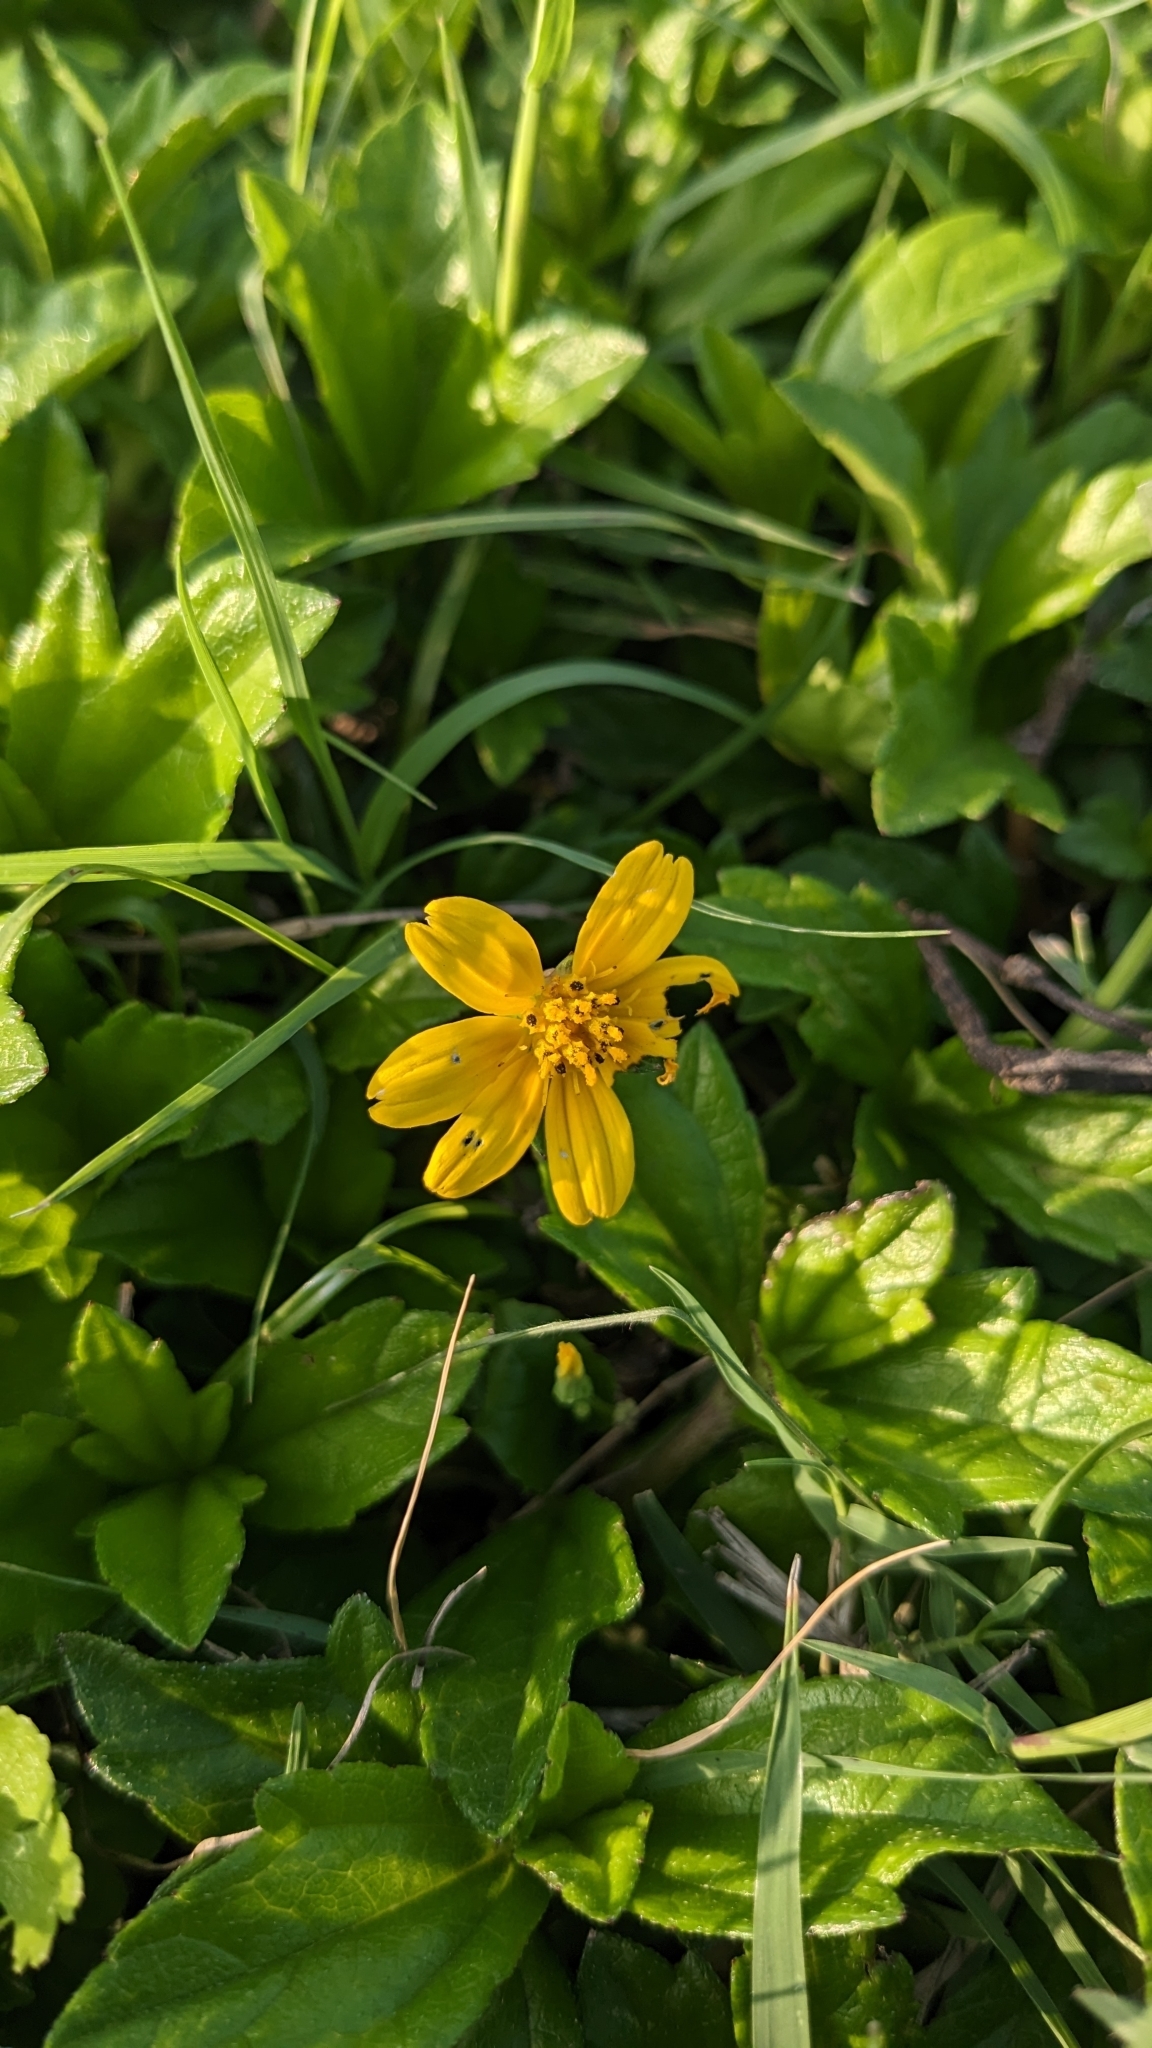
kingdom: Plantae
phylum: Tracheophyta
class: Magnoliopsida
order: Asterales
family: Asteraceae
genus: Sphagneticola
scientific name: Sphagneticola trilobata
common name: Bay biscayne creeping-oxeye
